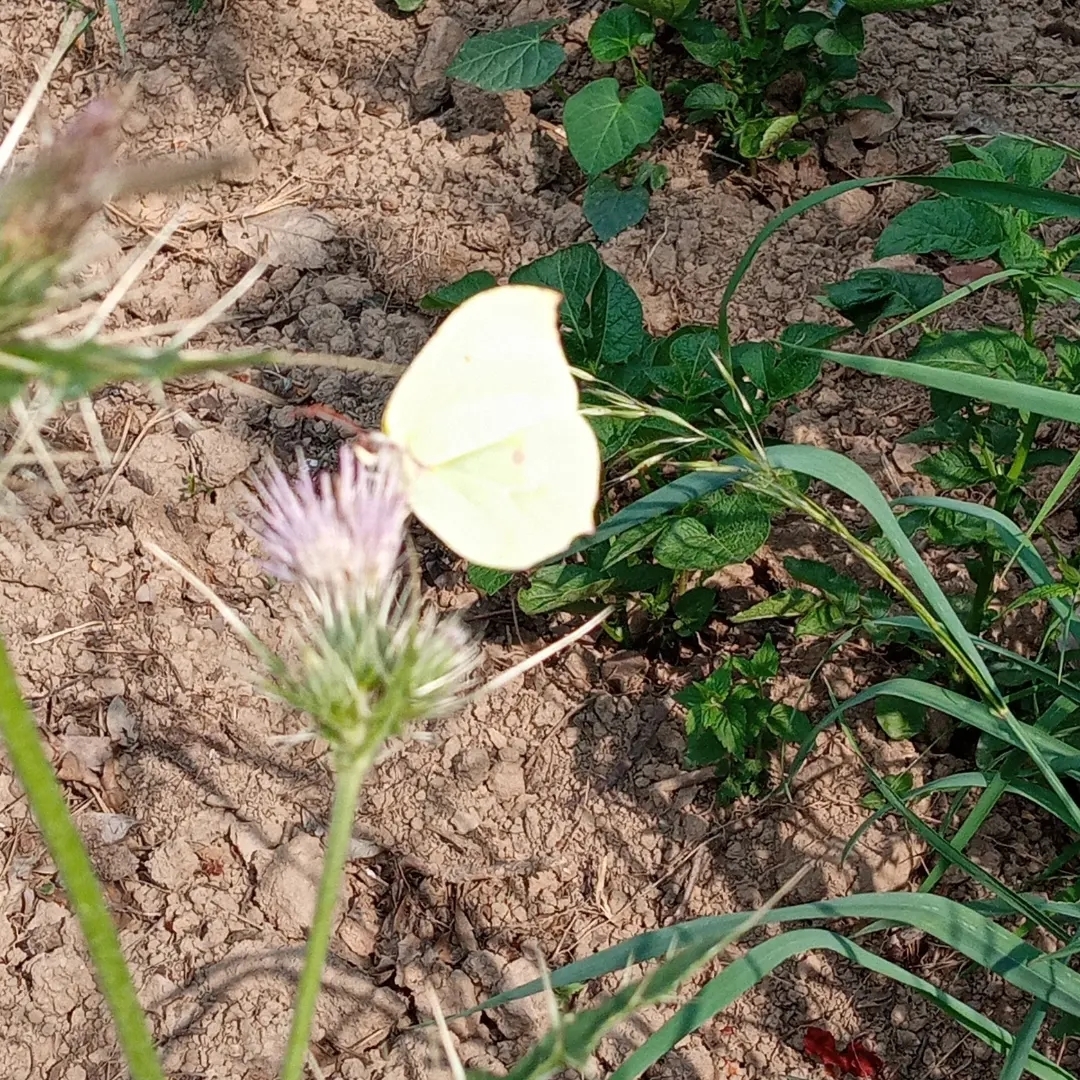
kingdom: Animalia
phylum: Arthropoda
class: Insecta
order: Lepidoptera
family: Pieridae
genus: Gonepteryx
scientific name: Gonepteryx
